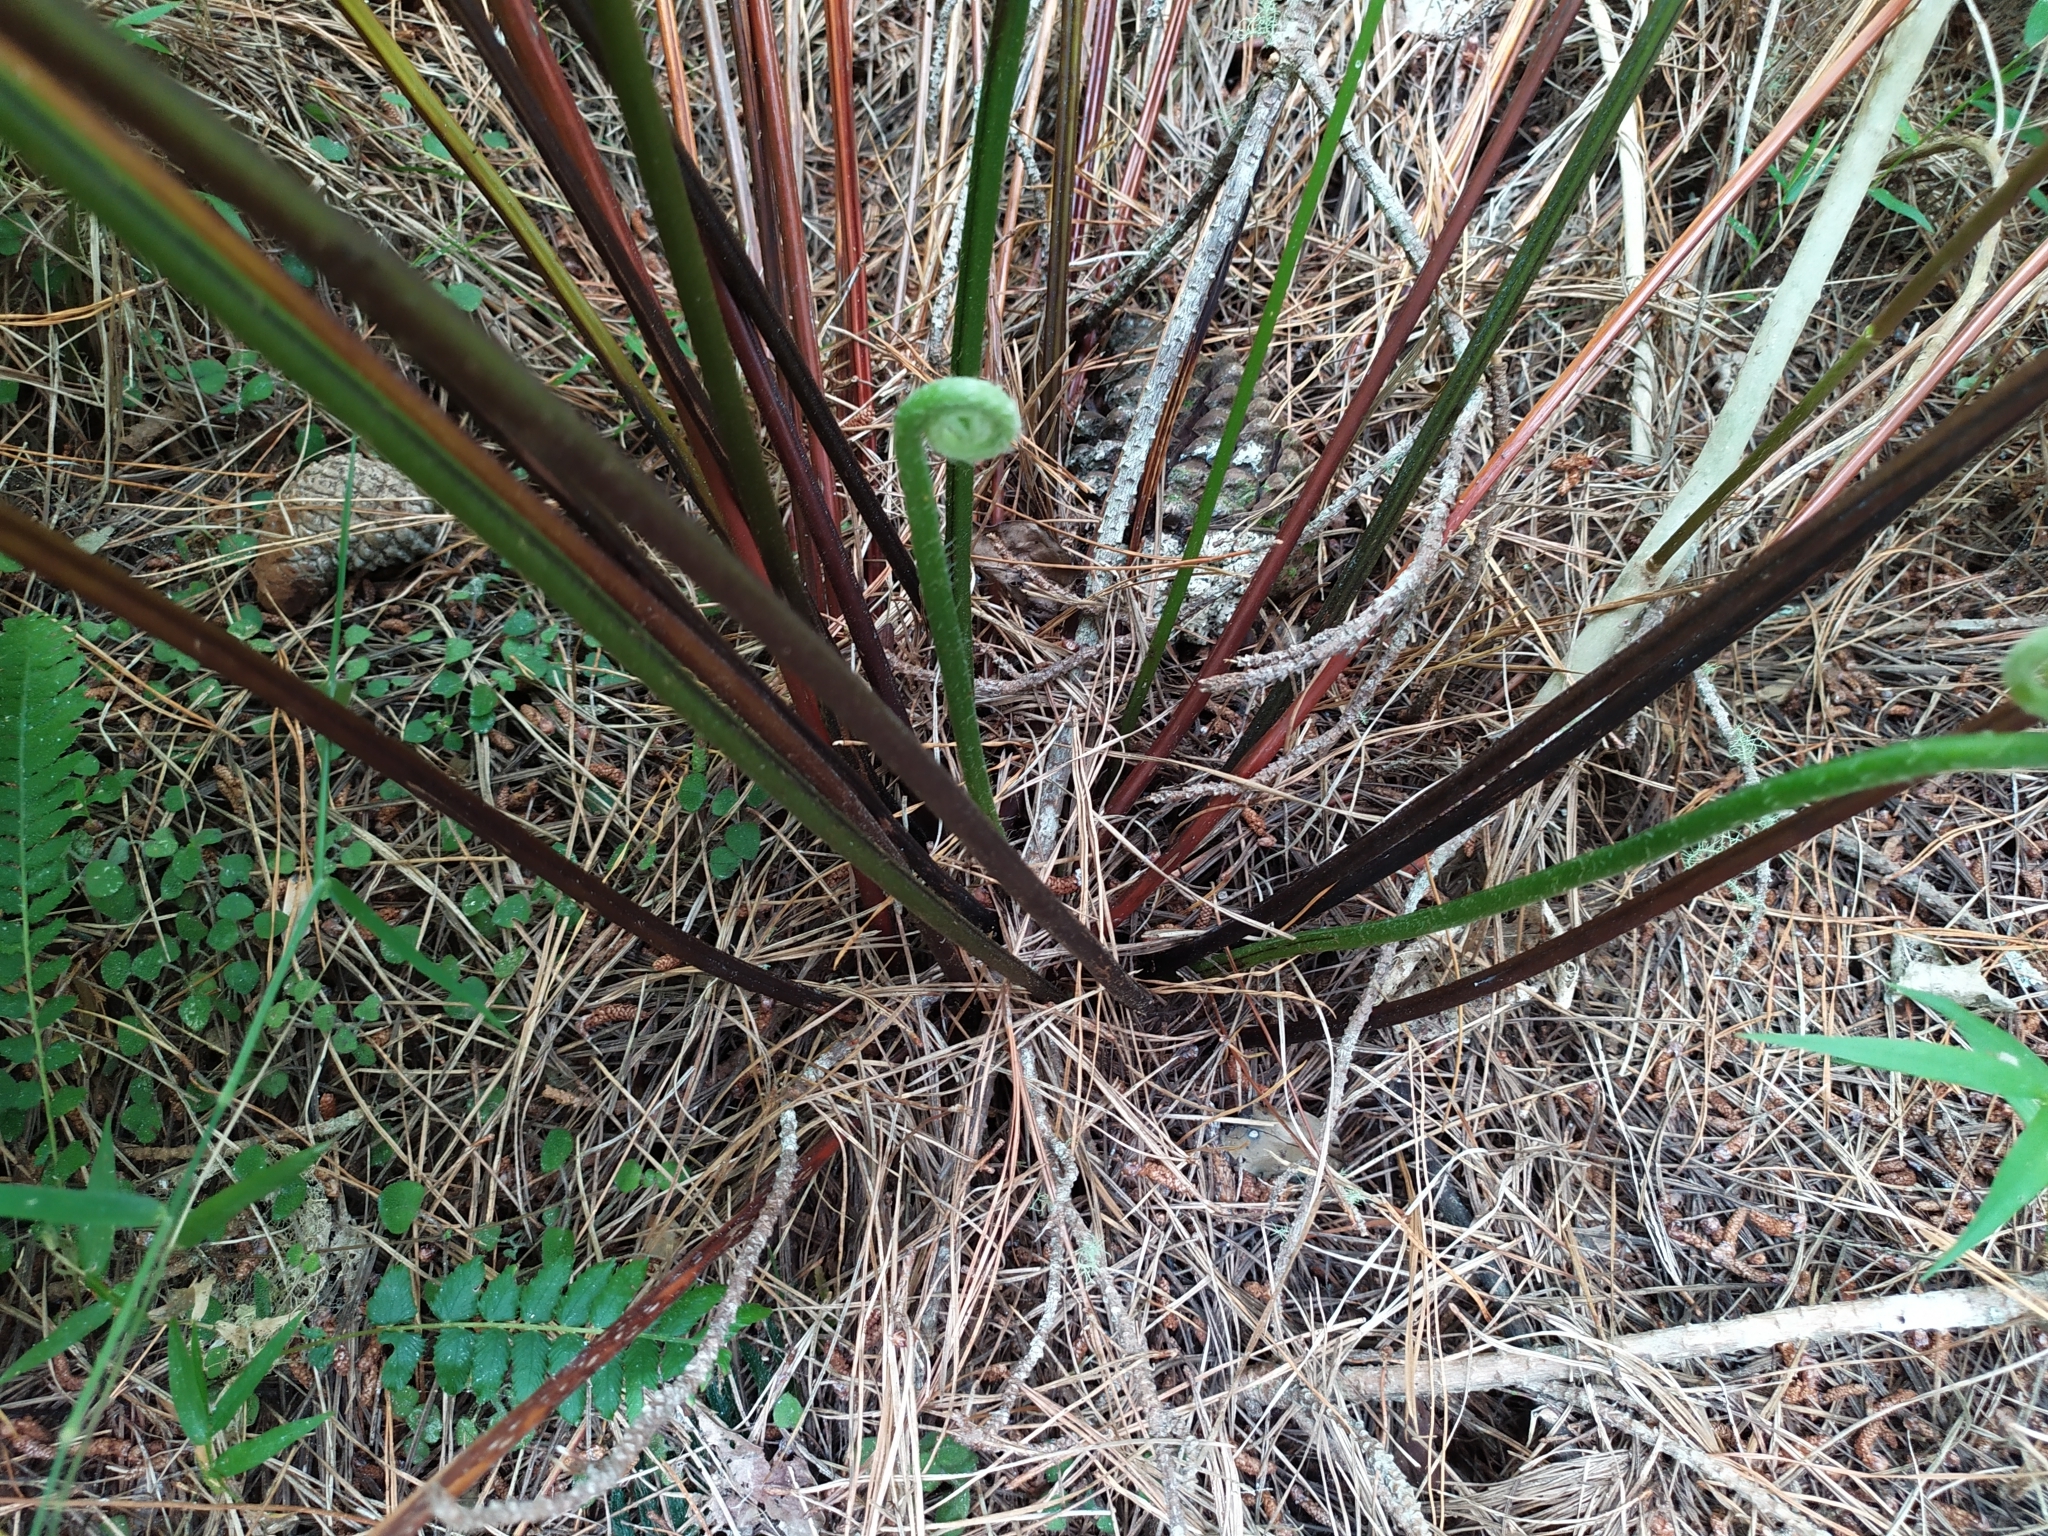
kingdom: Plantae
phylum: Tracheophyta
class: Polypodiopsida
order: Polypodiales
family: Pteridaceae
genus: Pteris
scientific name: Pteris tremula
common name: Australian brake
